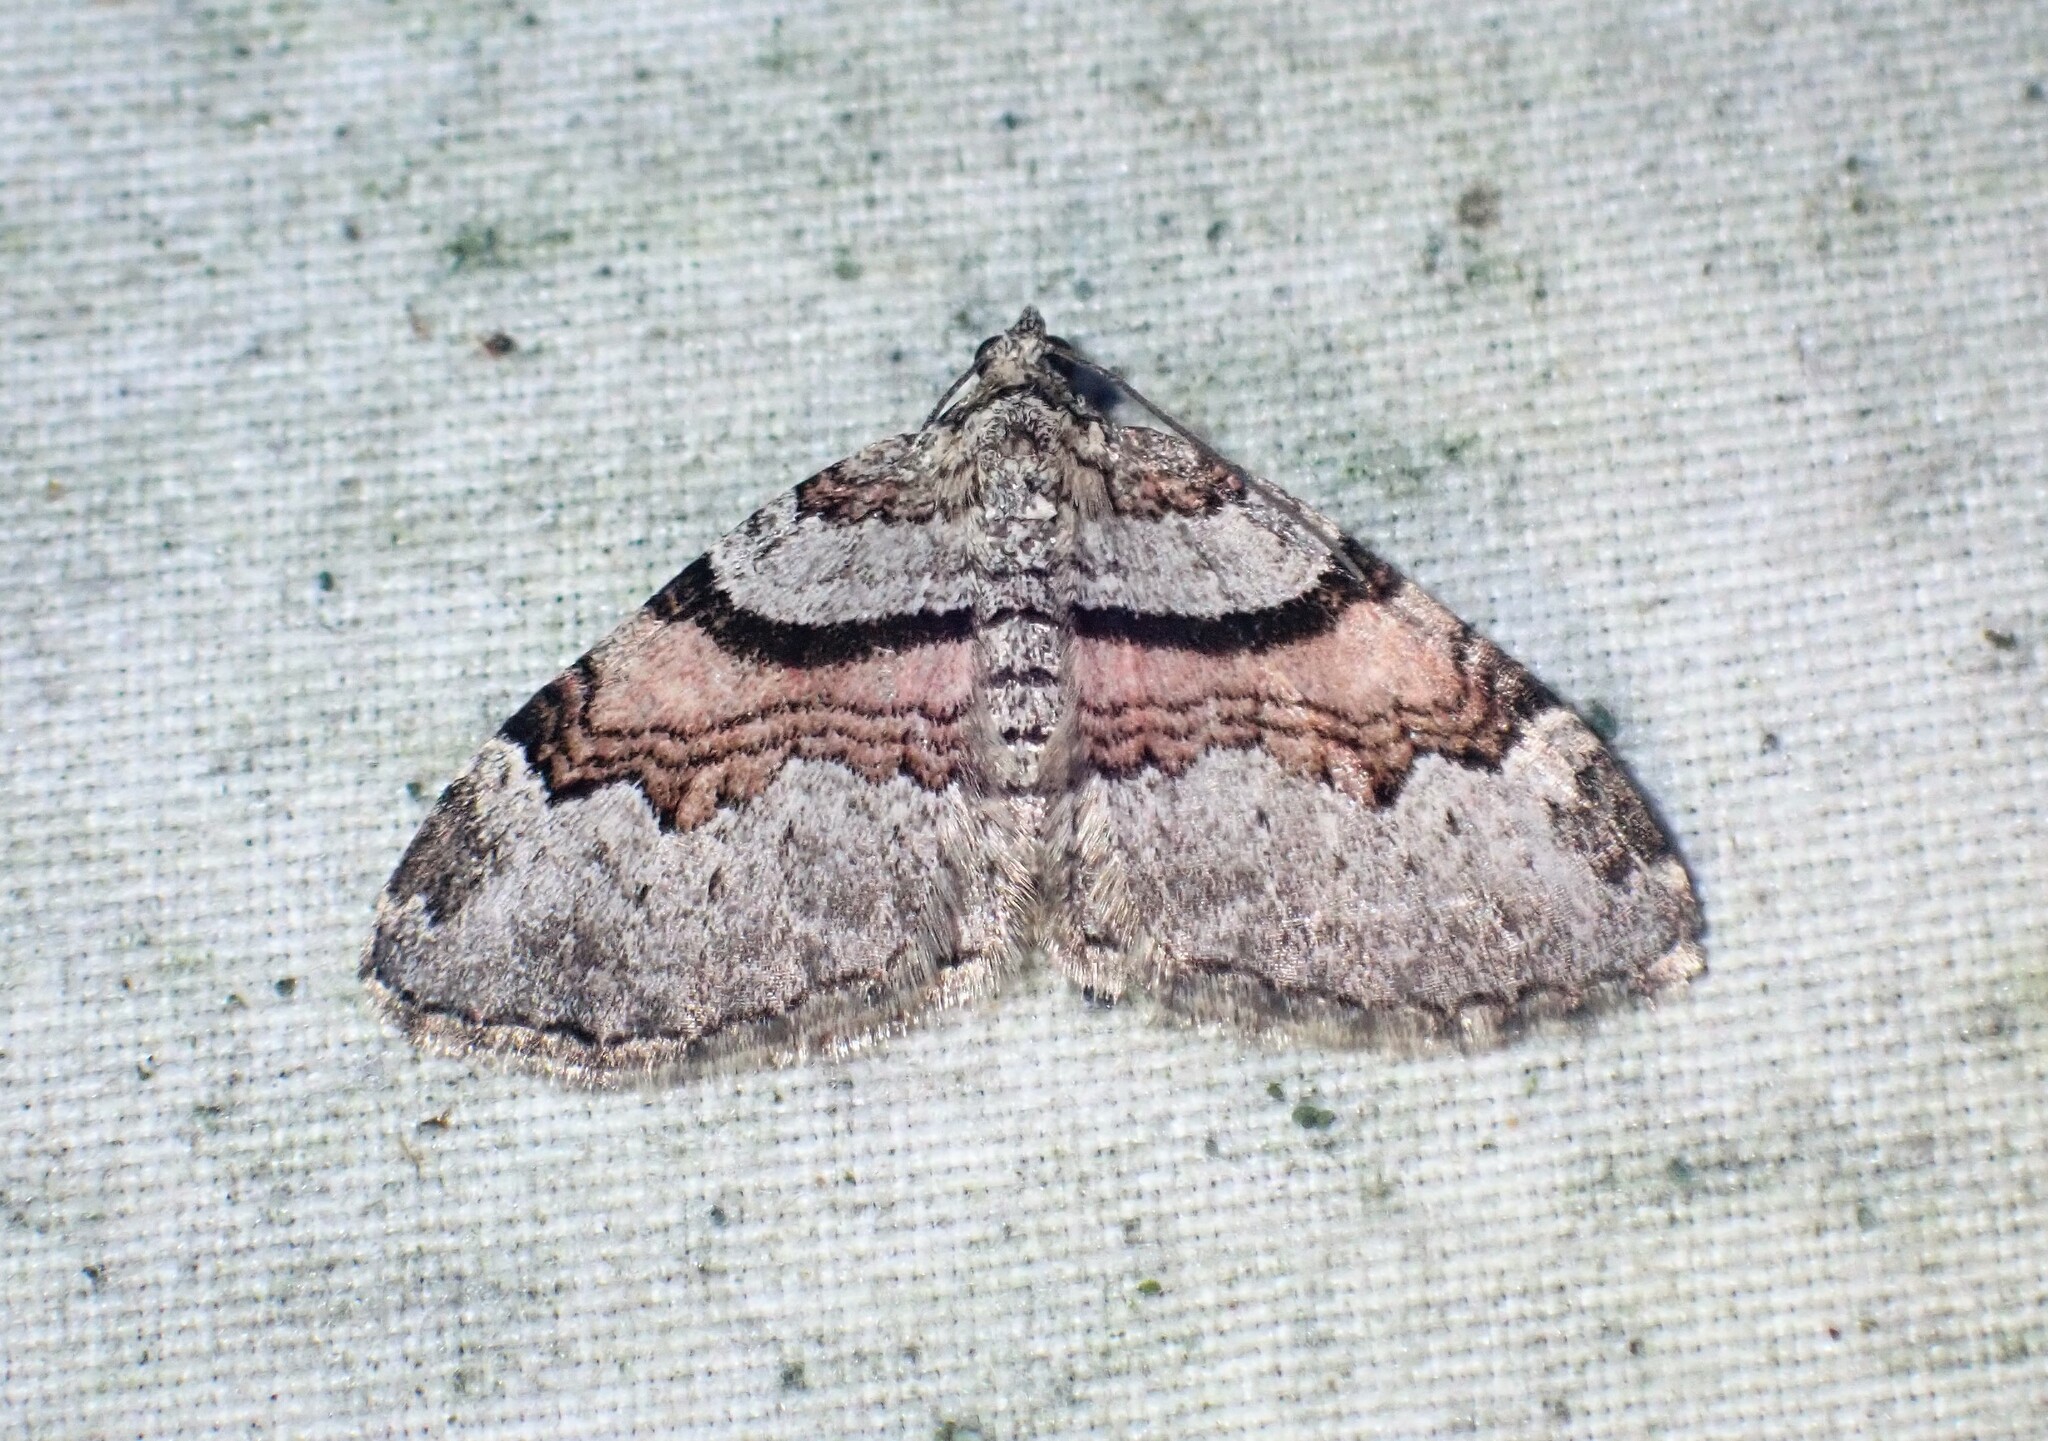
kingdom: Animalia
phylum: Arthropoda
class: Insecta
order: Lepidoptera
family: Geometridae
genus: Xanthorhoe
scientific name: Xanthorhoe labradorensis
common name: Labrador carpet
